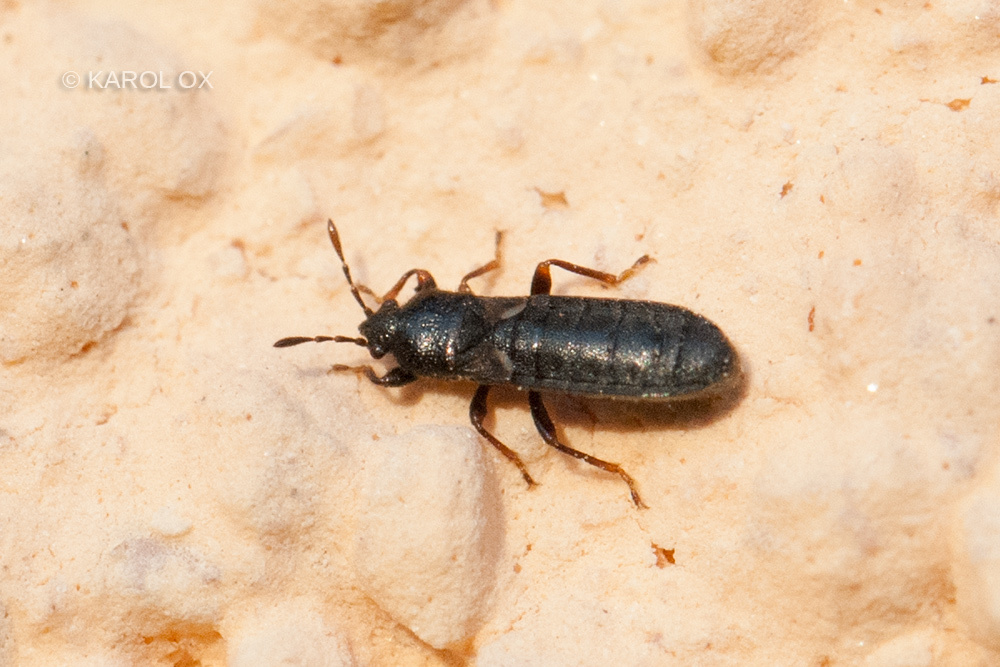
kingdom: Animalia
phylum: Arthropoda
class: Insecta
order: Hemiptera
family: Blissidae
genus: Dimorphopterus
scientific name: Dimorphopterus spinolae
